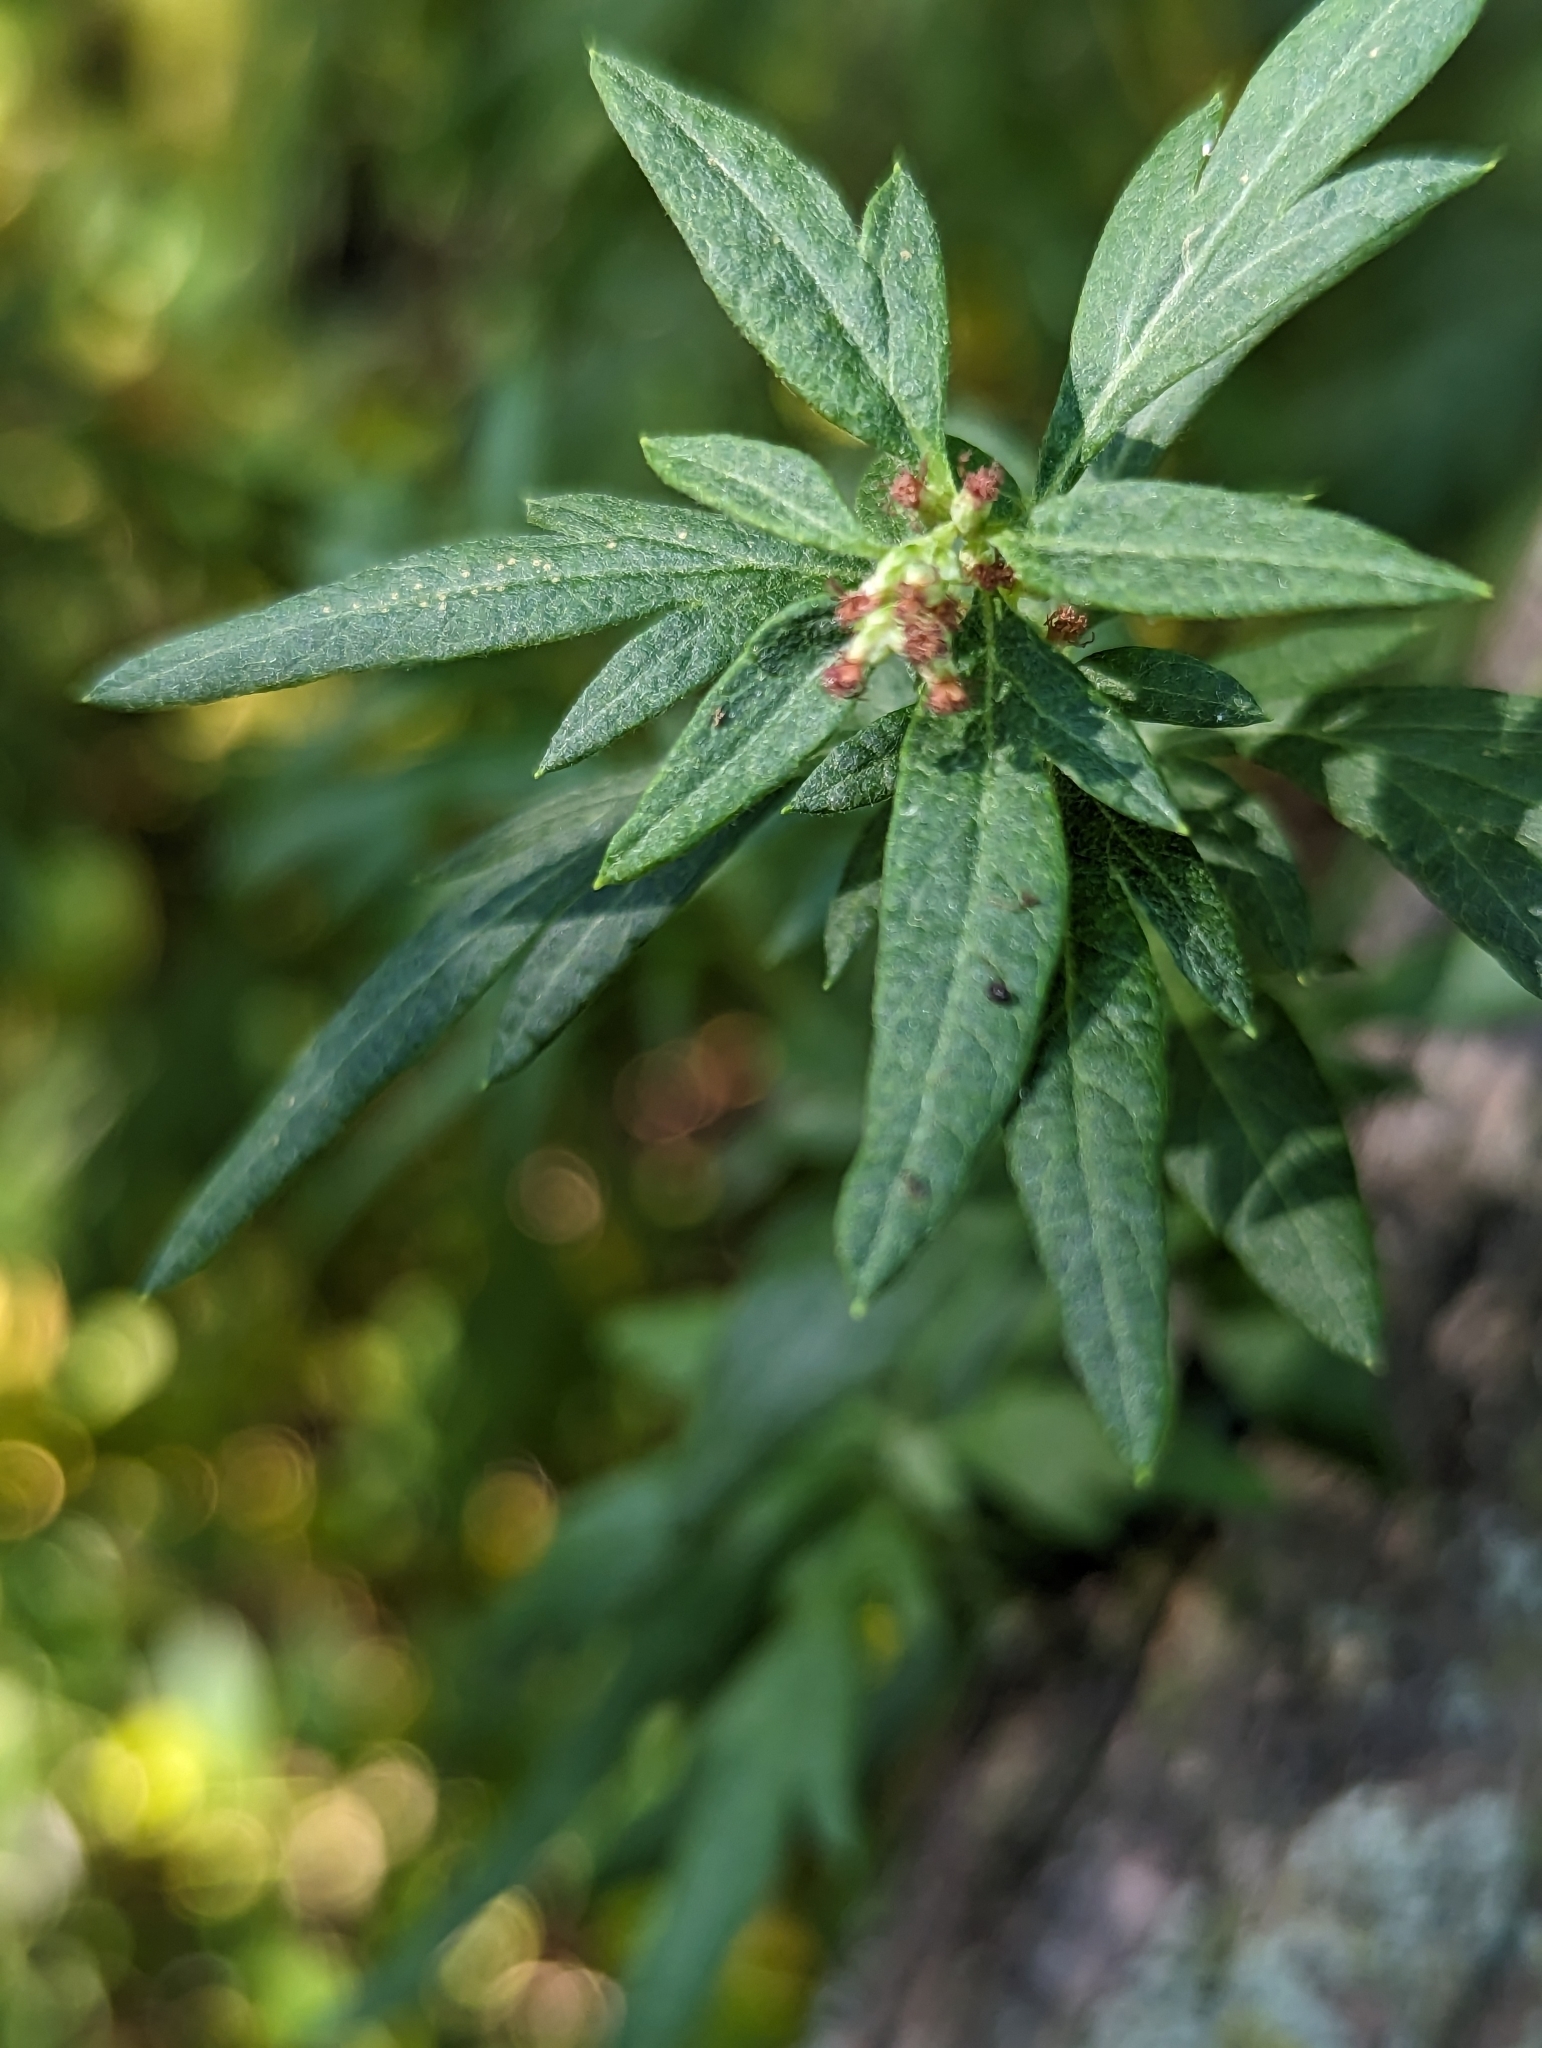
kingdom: Plantae
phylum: Tracheophyta
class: Magnoliopsida
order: Asterales
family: Asteraceae
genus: Artemisia
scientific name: Artemisia vulgaris
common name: Mugwort
